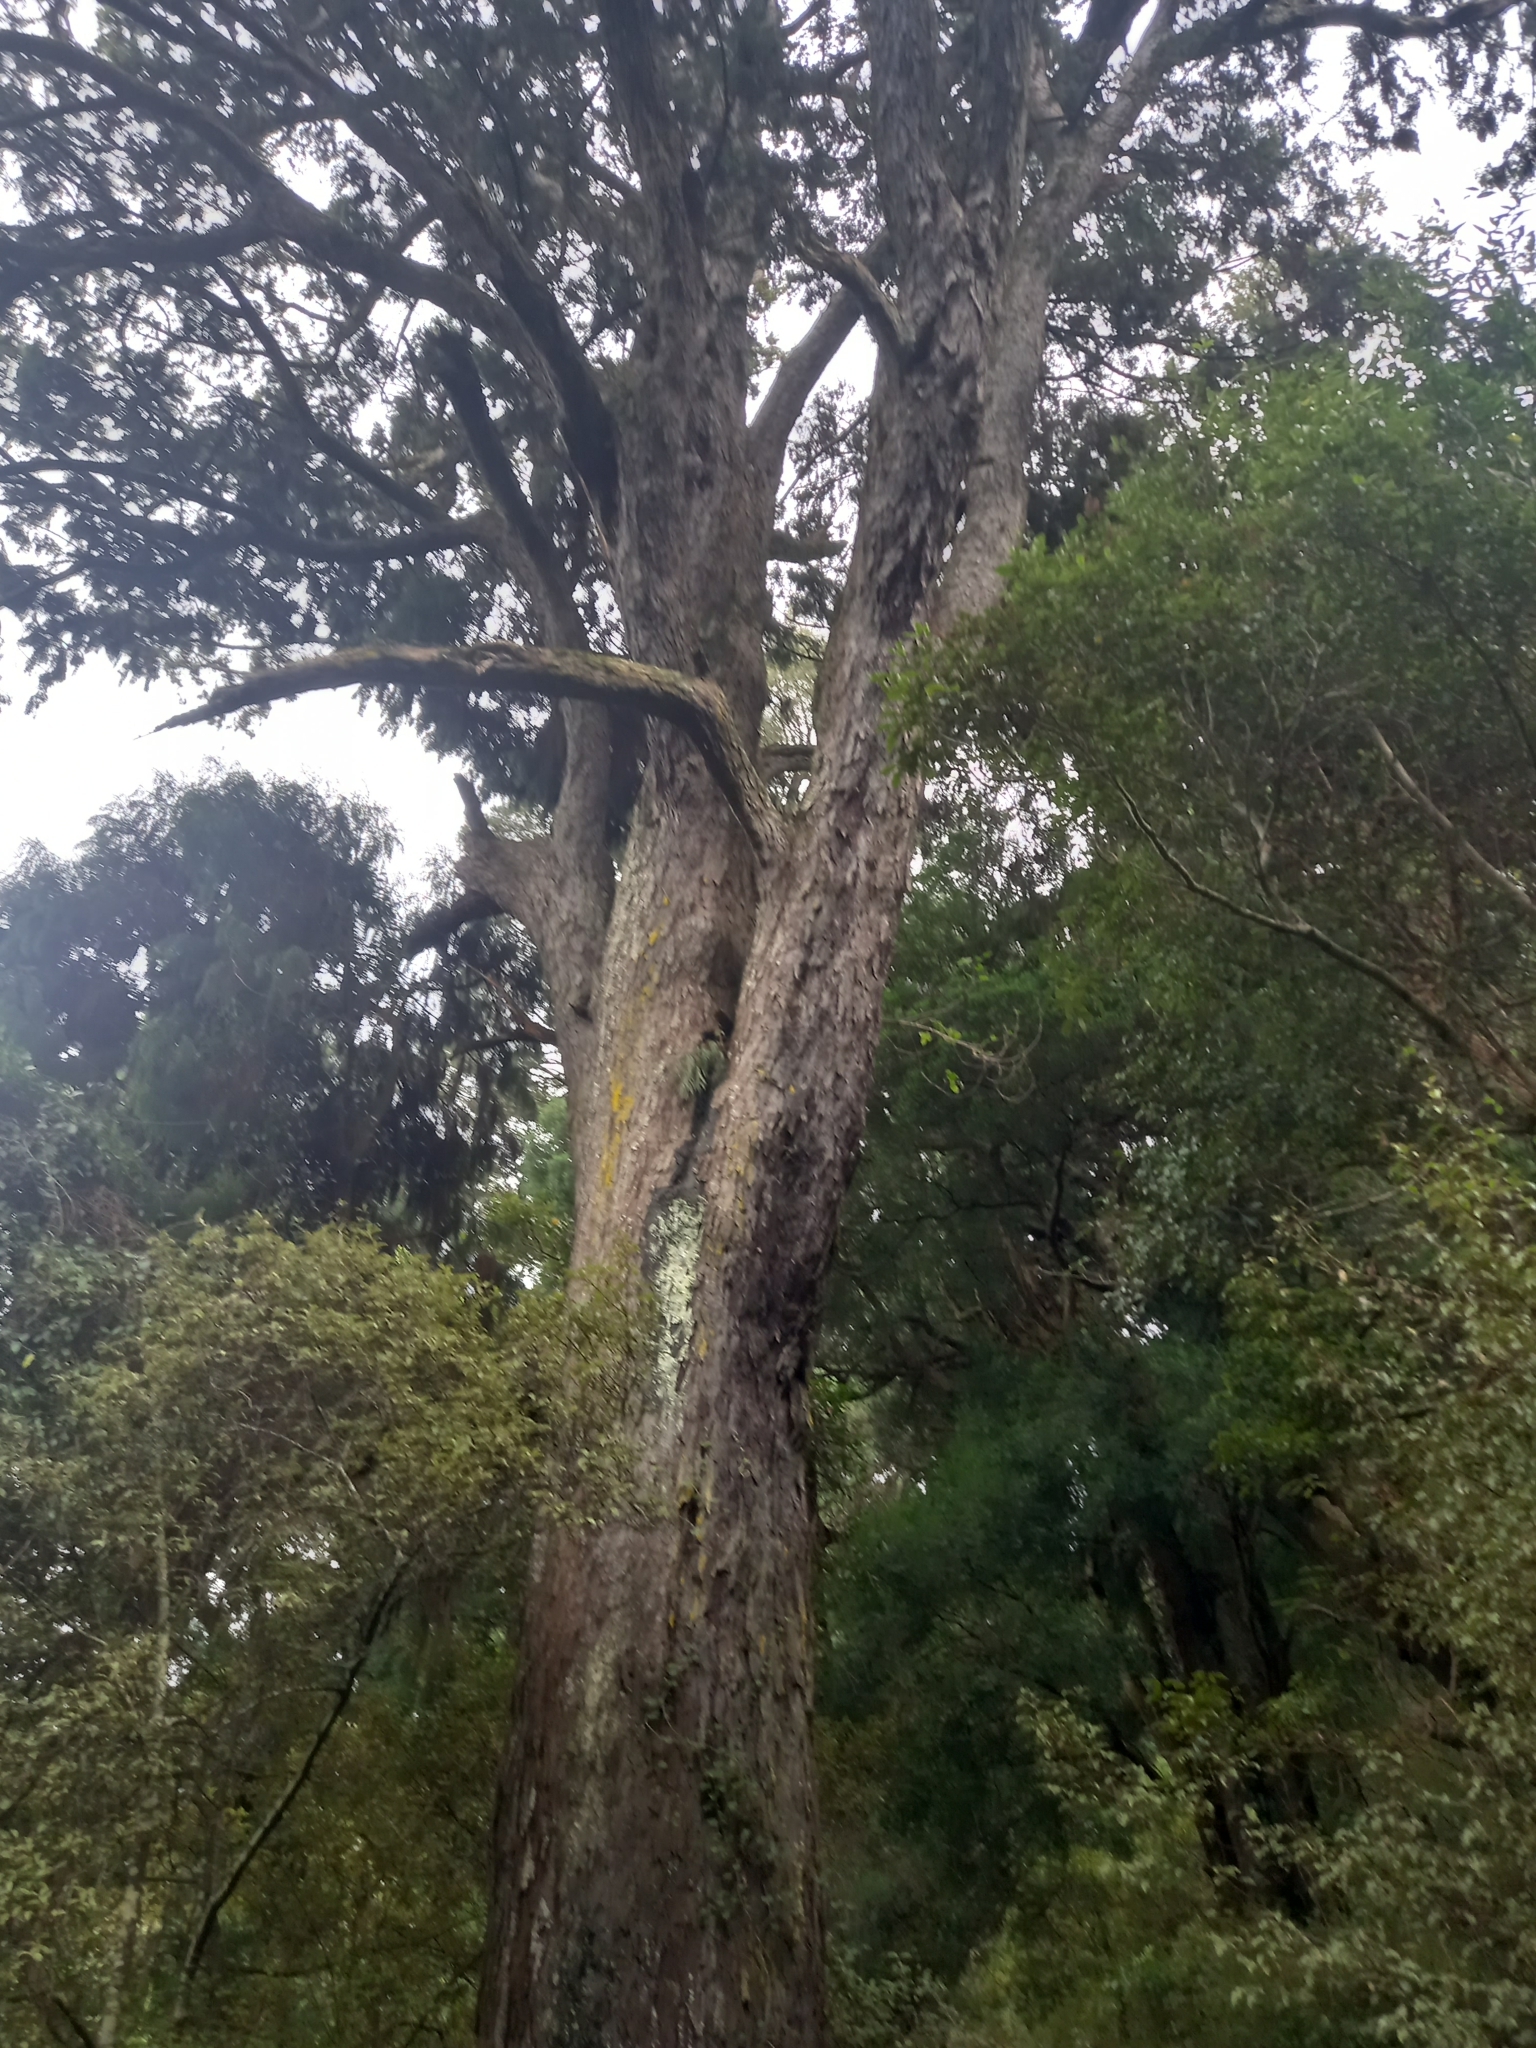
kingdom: Plantae
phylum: Tracheophyta
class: Pinopsida
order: Pinales
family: Podocarpaceae
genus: Dacrydium
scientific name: Dacrydium cupressinum
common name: Red pine
